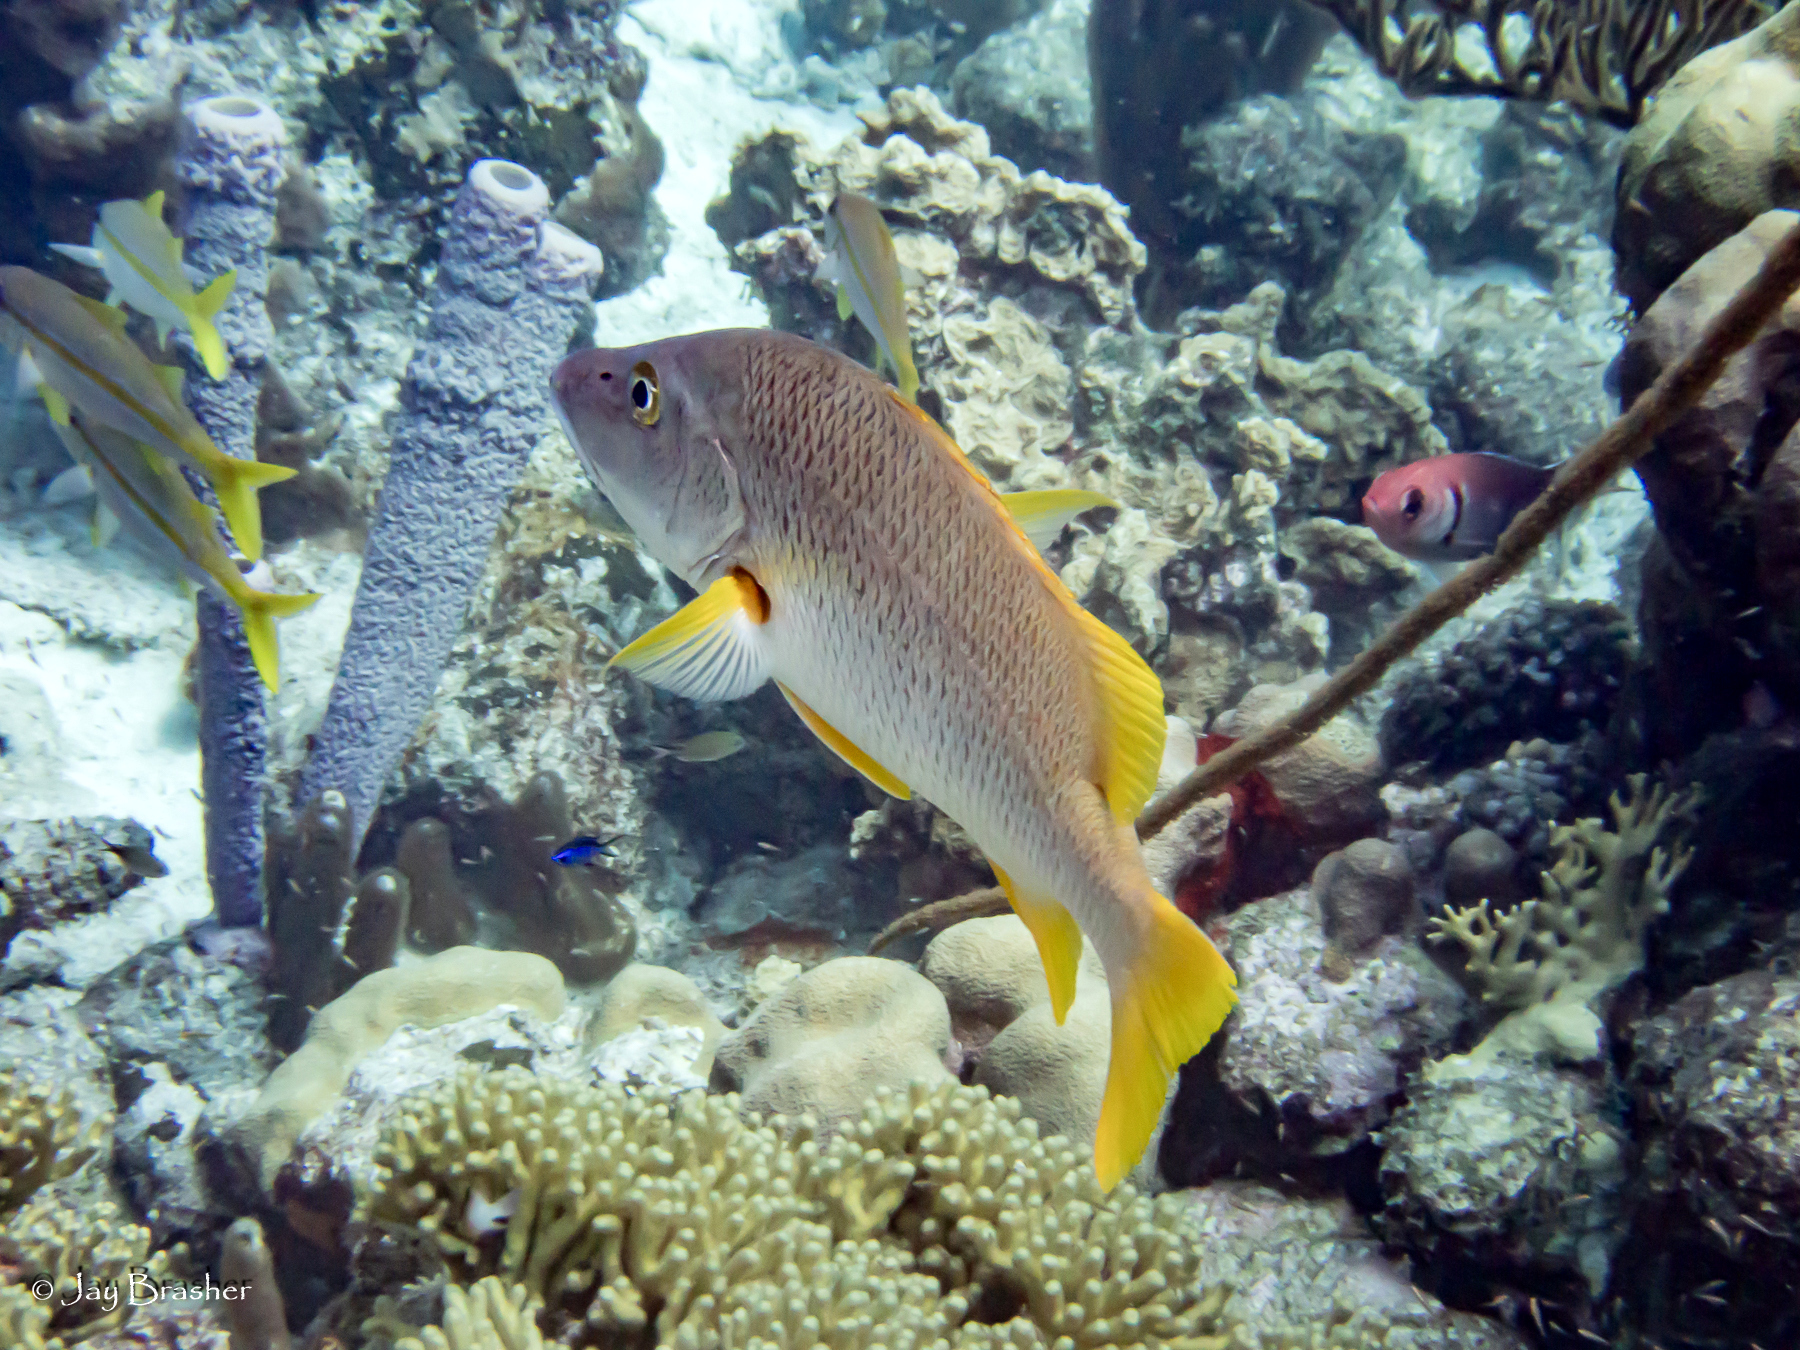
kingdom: Animalia
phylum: Chordata
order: Perciformes
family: Lutjanidae
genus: Lutjanus
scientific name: Lutjanus apodus
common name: Schoolmaster
